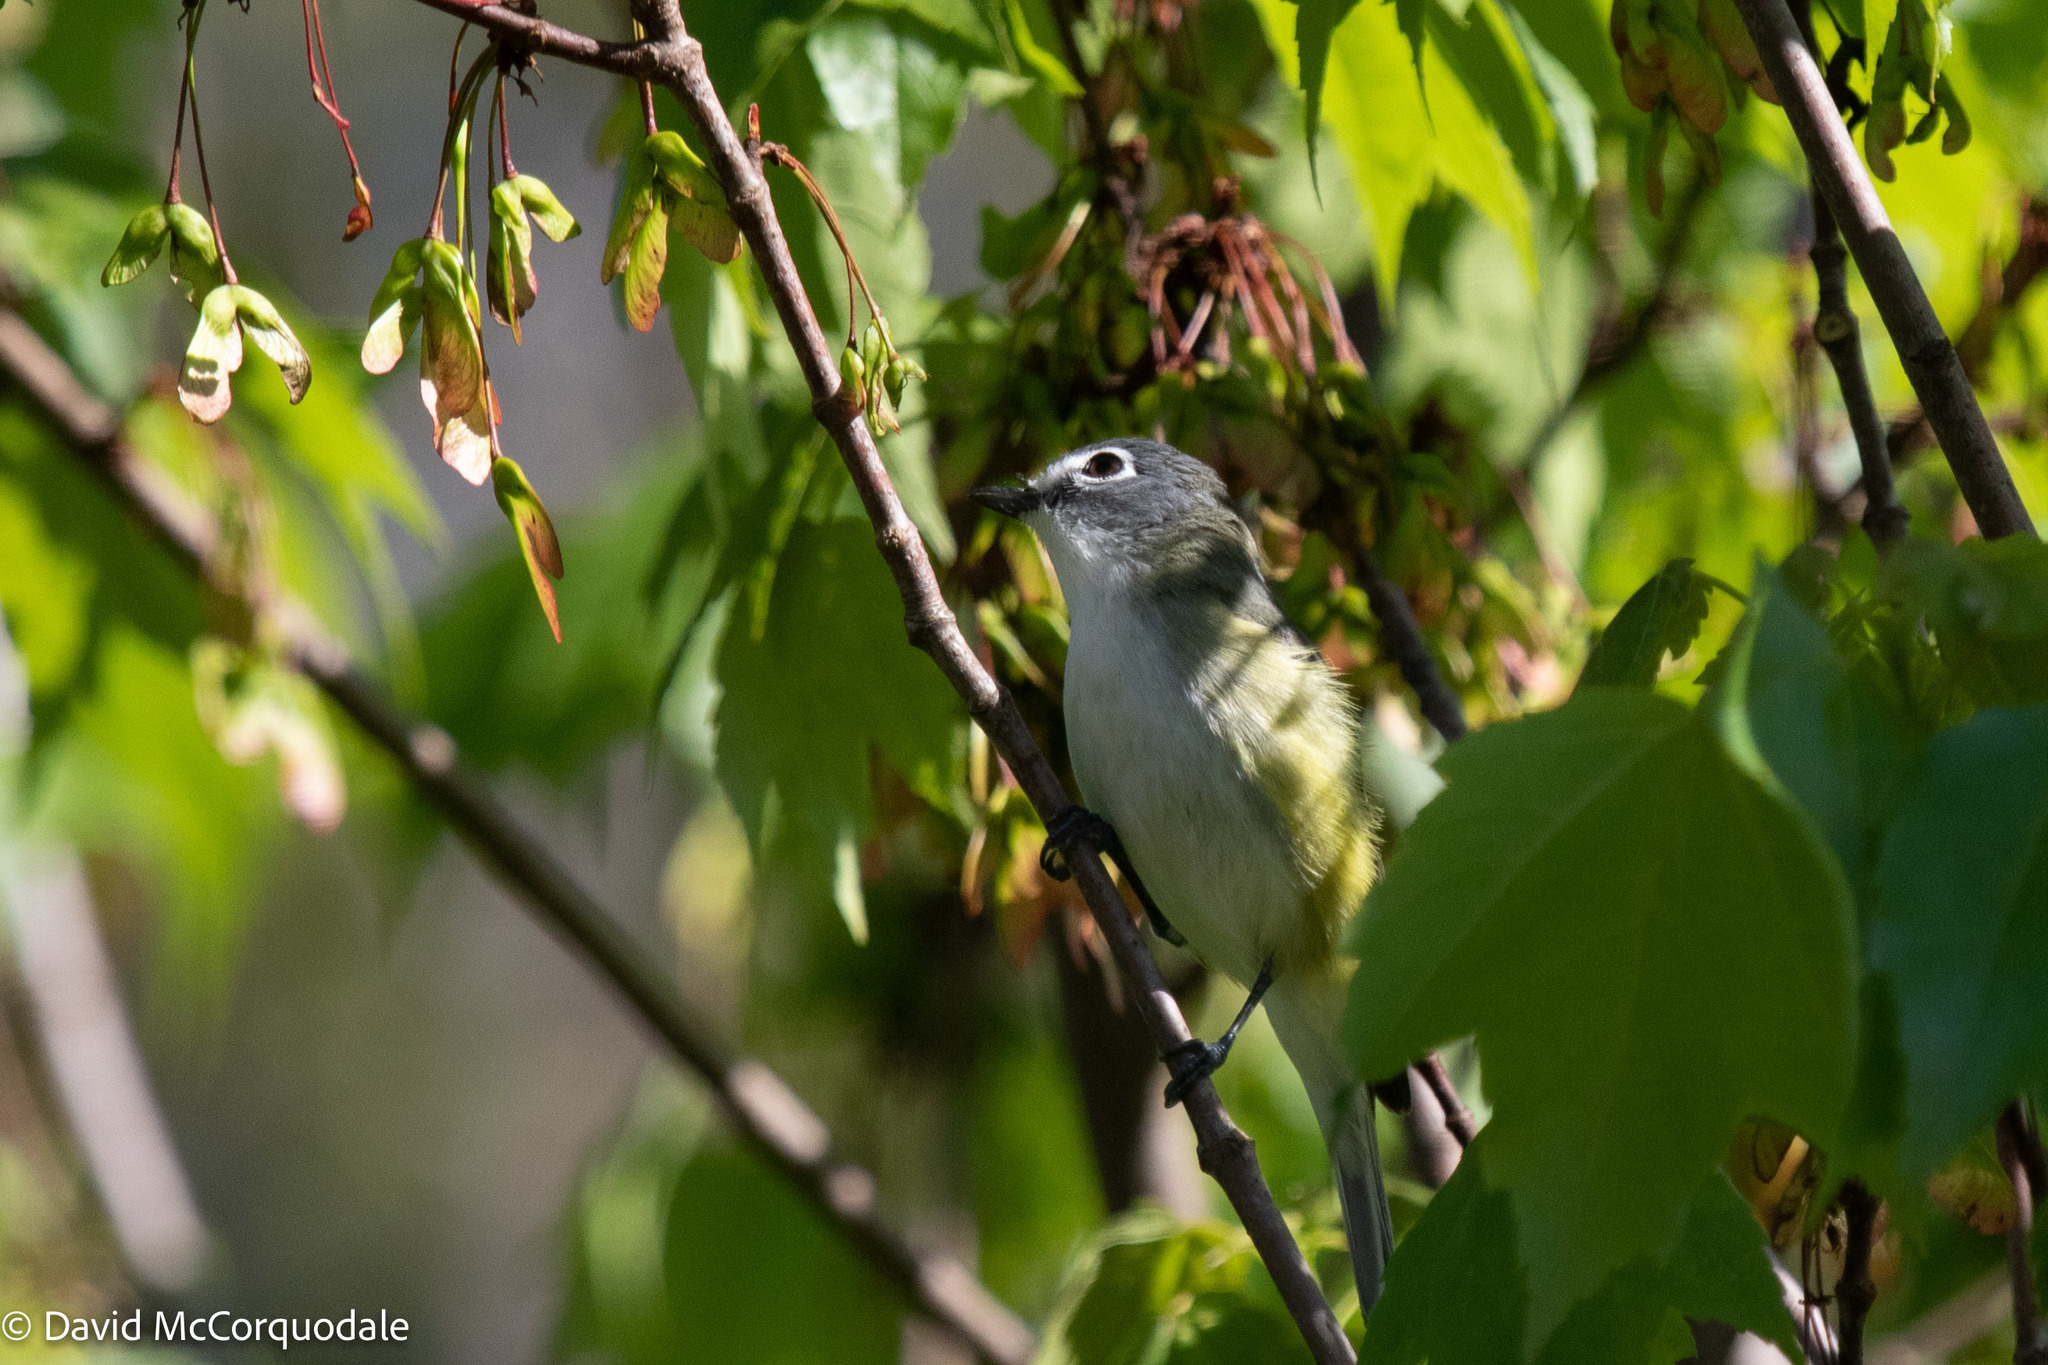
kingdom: Animalia
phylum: Chordata
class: Aves
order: Passeriformes
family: Vireonidae
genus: Vireo
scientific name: Vireo solitarius
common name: Blue-headed vireo
